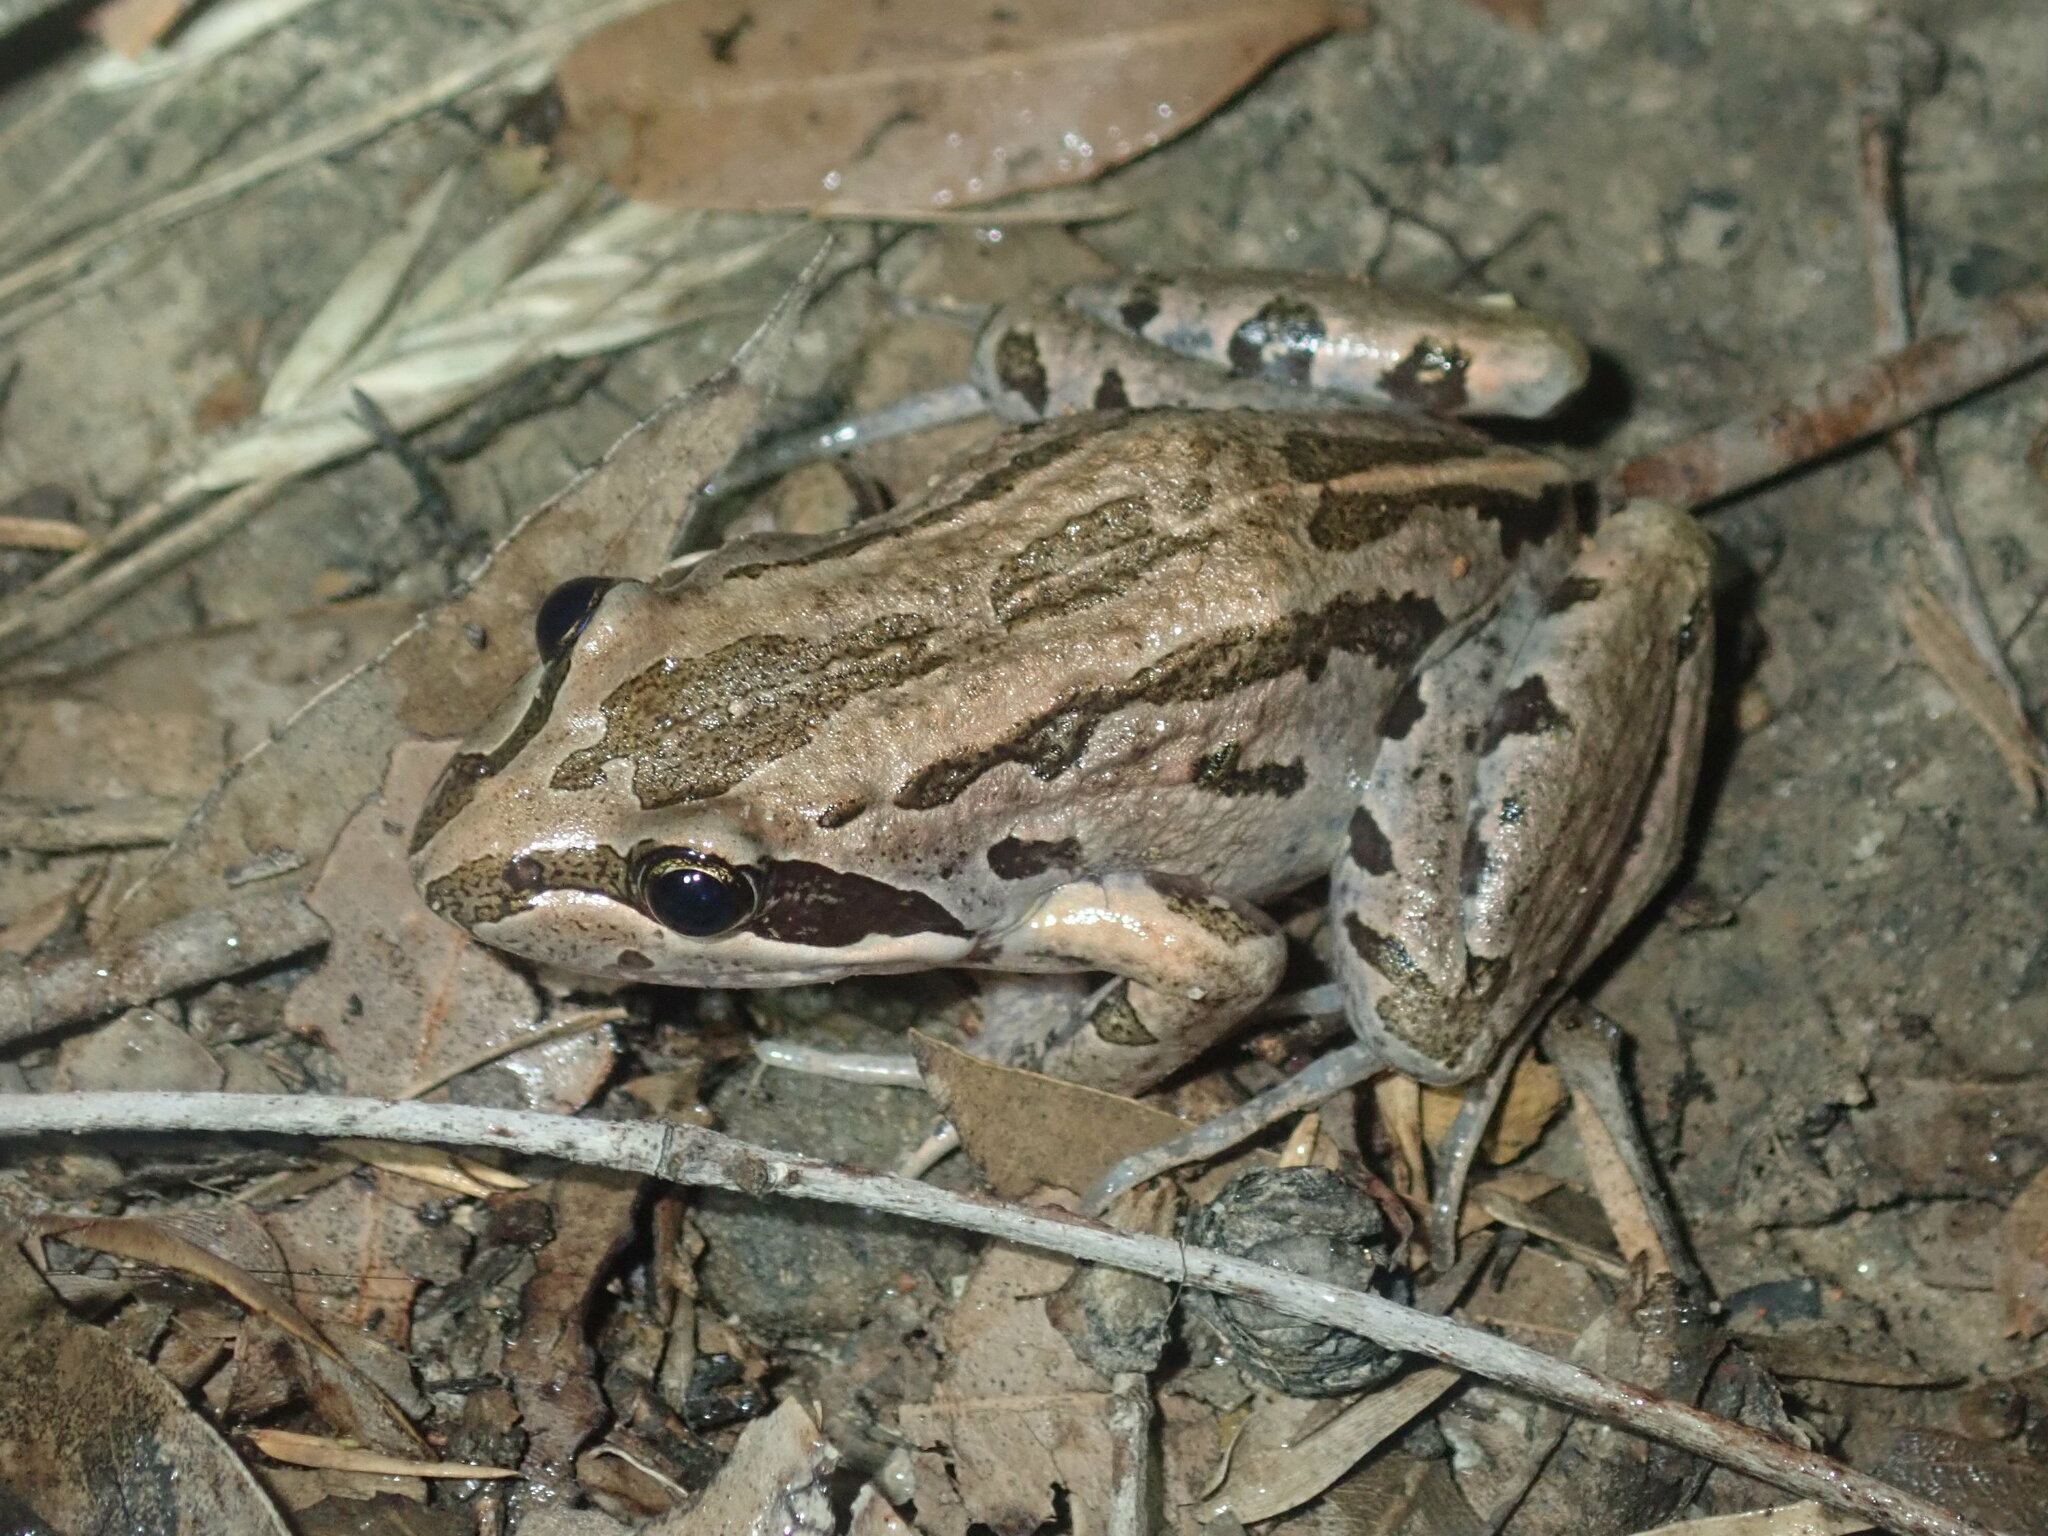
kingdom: Animalia
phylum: Chordata
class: Amphibia
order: Anura
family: Limnodynastidae
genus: Limnodynastes
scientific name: Limnodynastes peronii
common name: Brown frog
